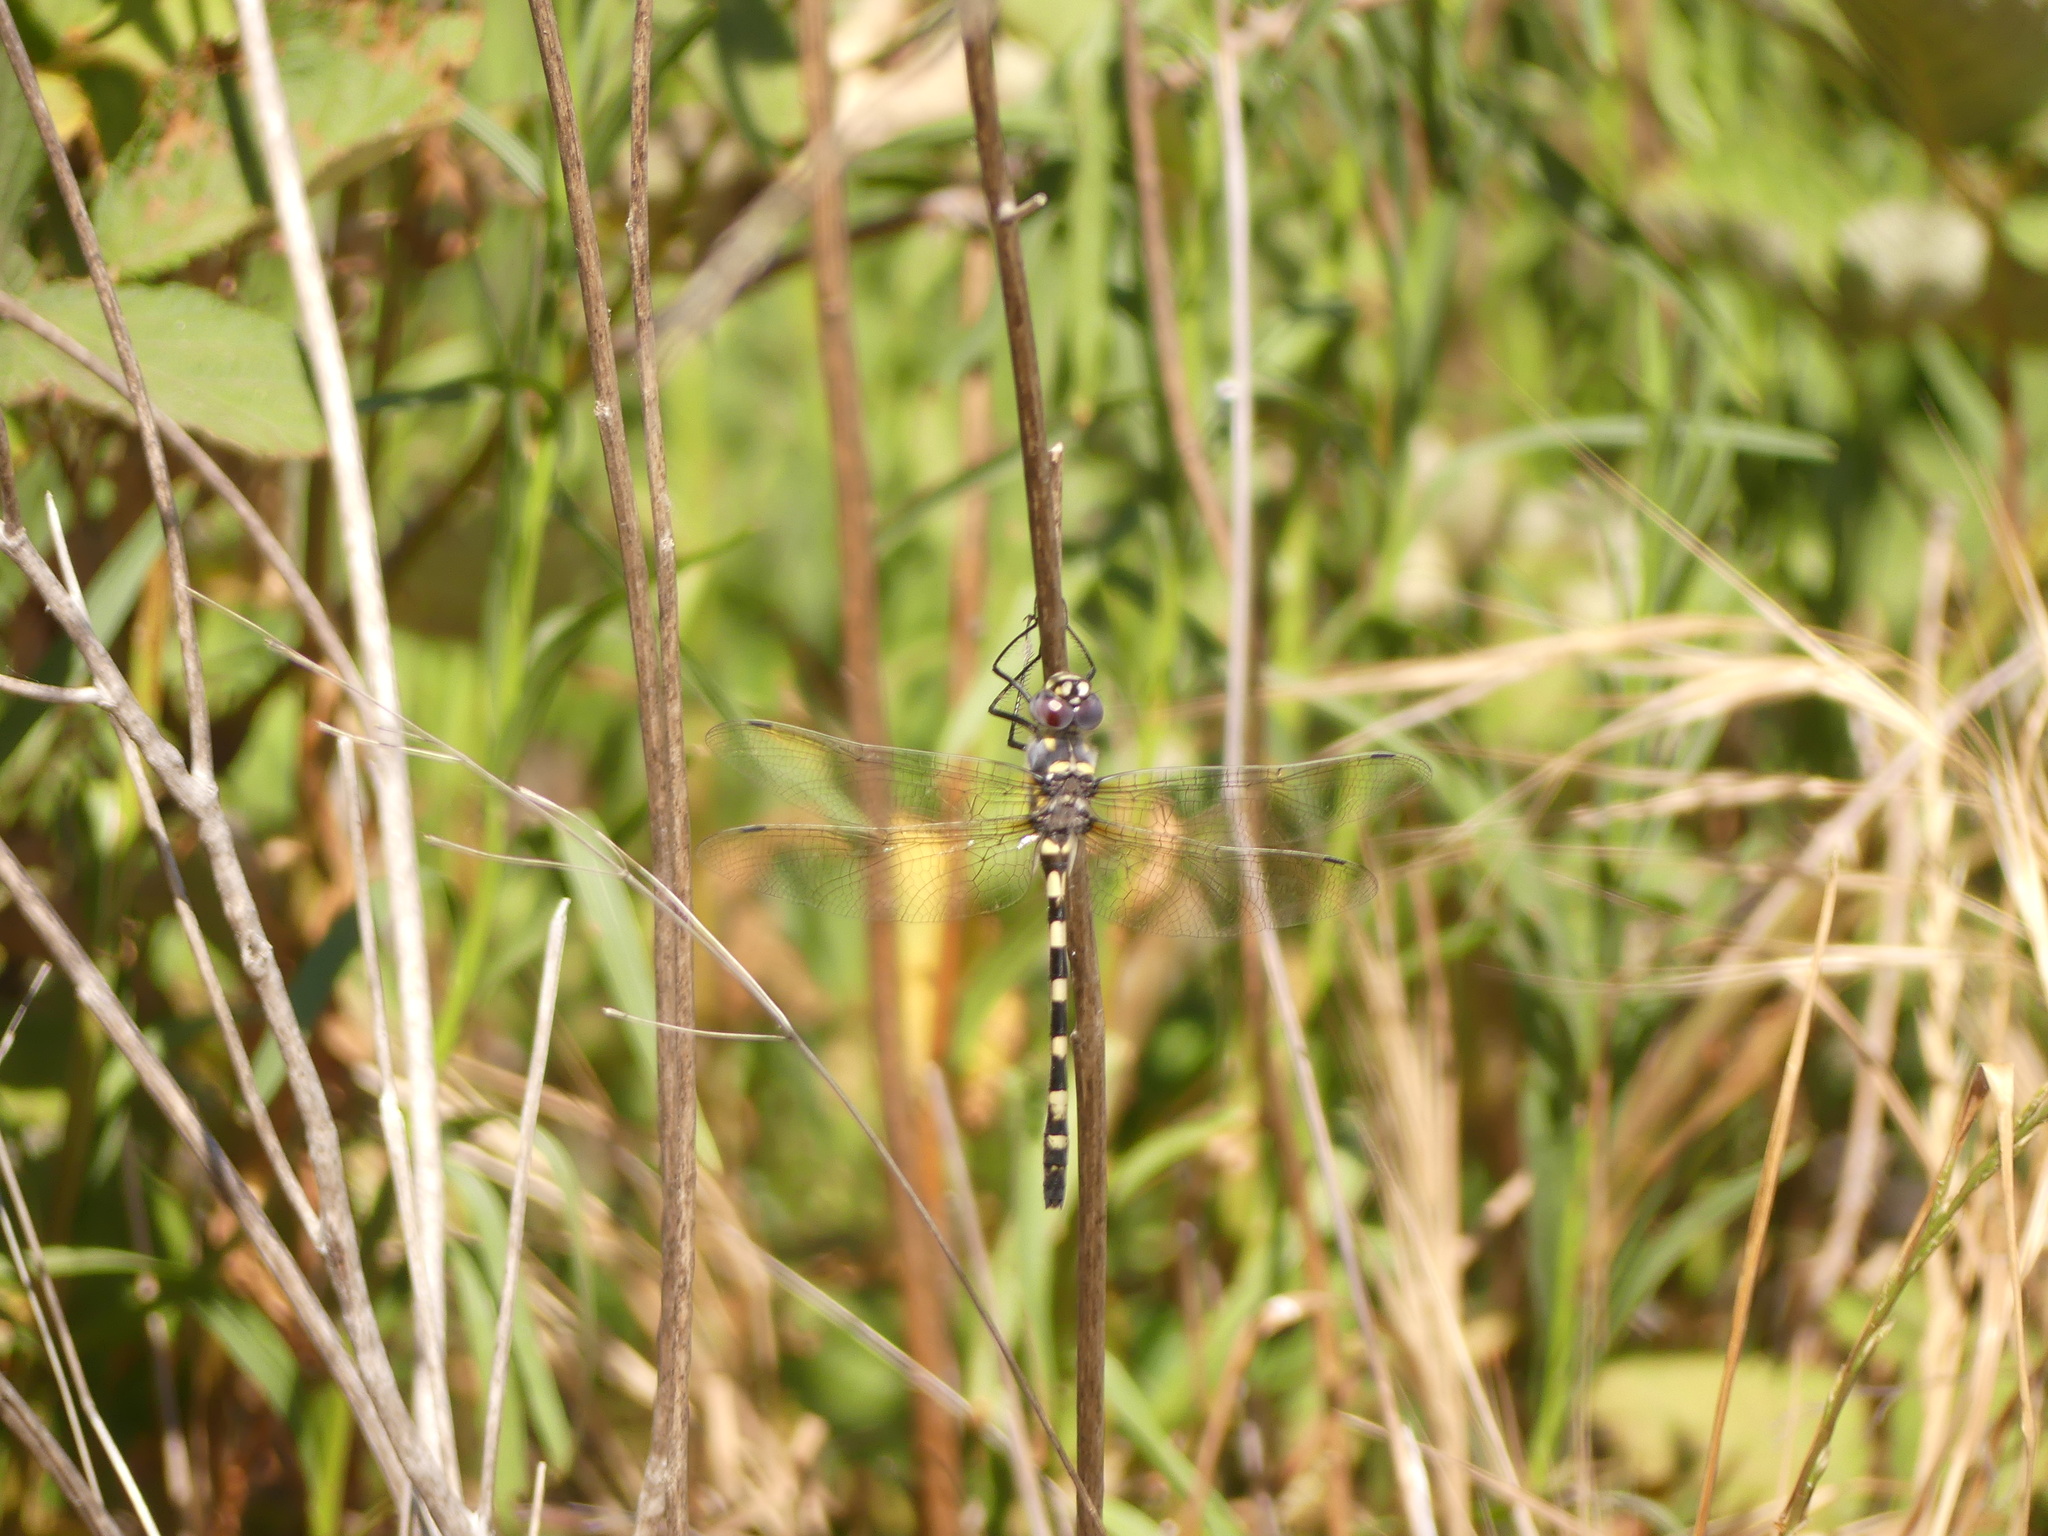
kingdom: Animalia
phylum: Arthropoda
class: Insecta
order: Odonata
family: Macromiidae
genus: Macromia
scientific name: Macromia magnifica
